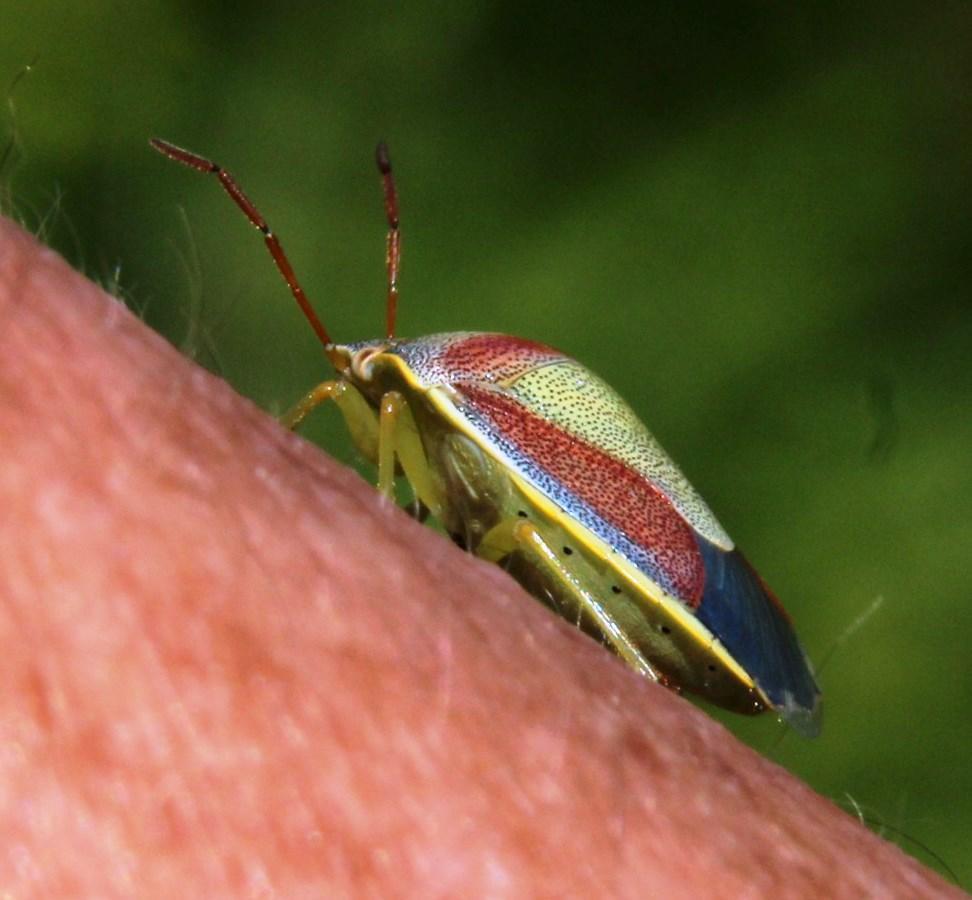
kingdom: Animalia
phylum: Arthropoda
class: Insecta
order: Hemiptera
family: Pentatomidae
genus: Piezodorus
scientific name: Piezodorus lituratus
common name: Stink bug
